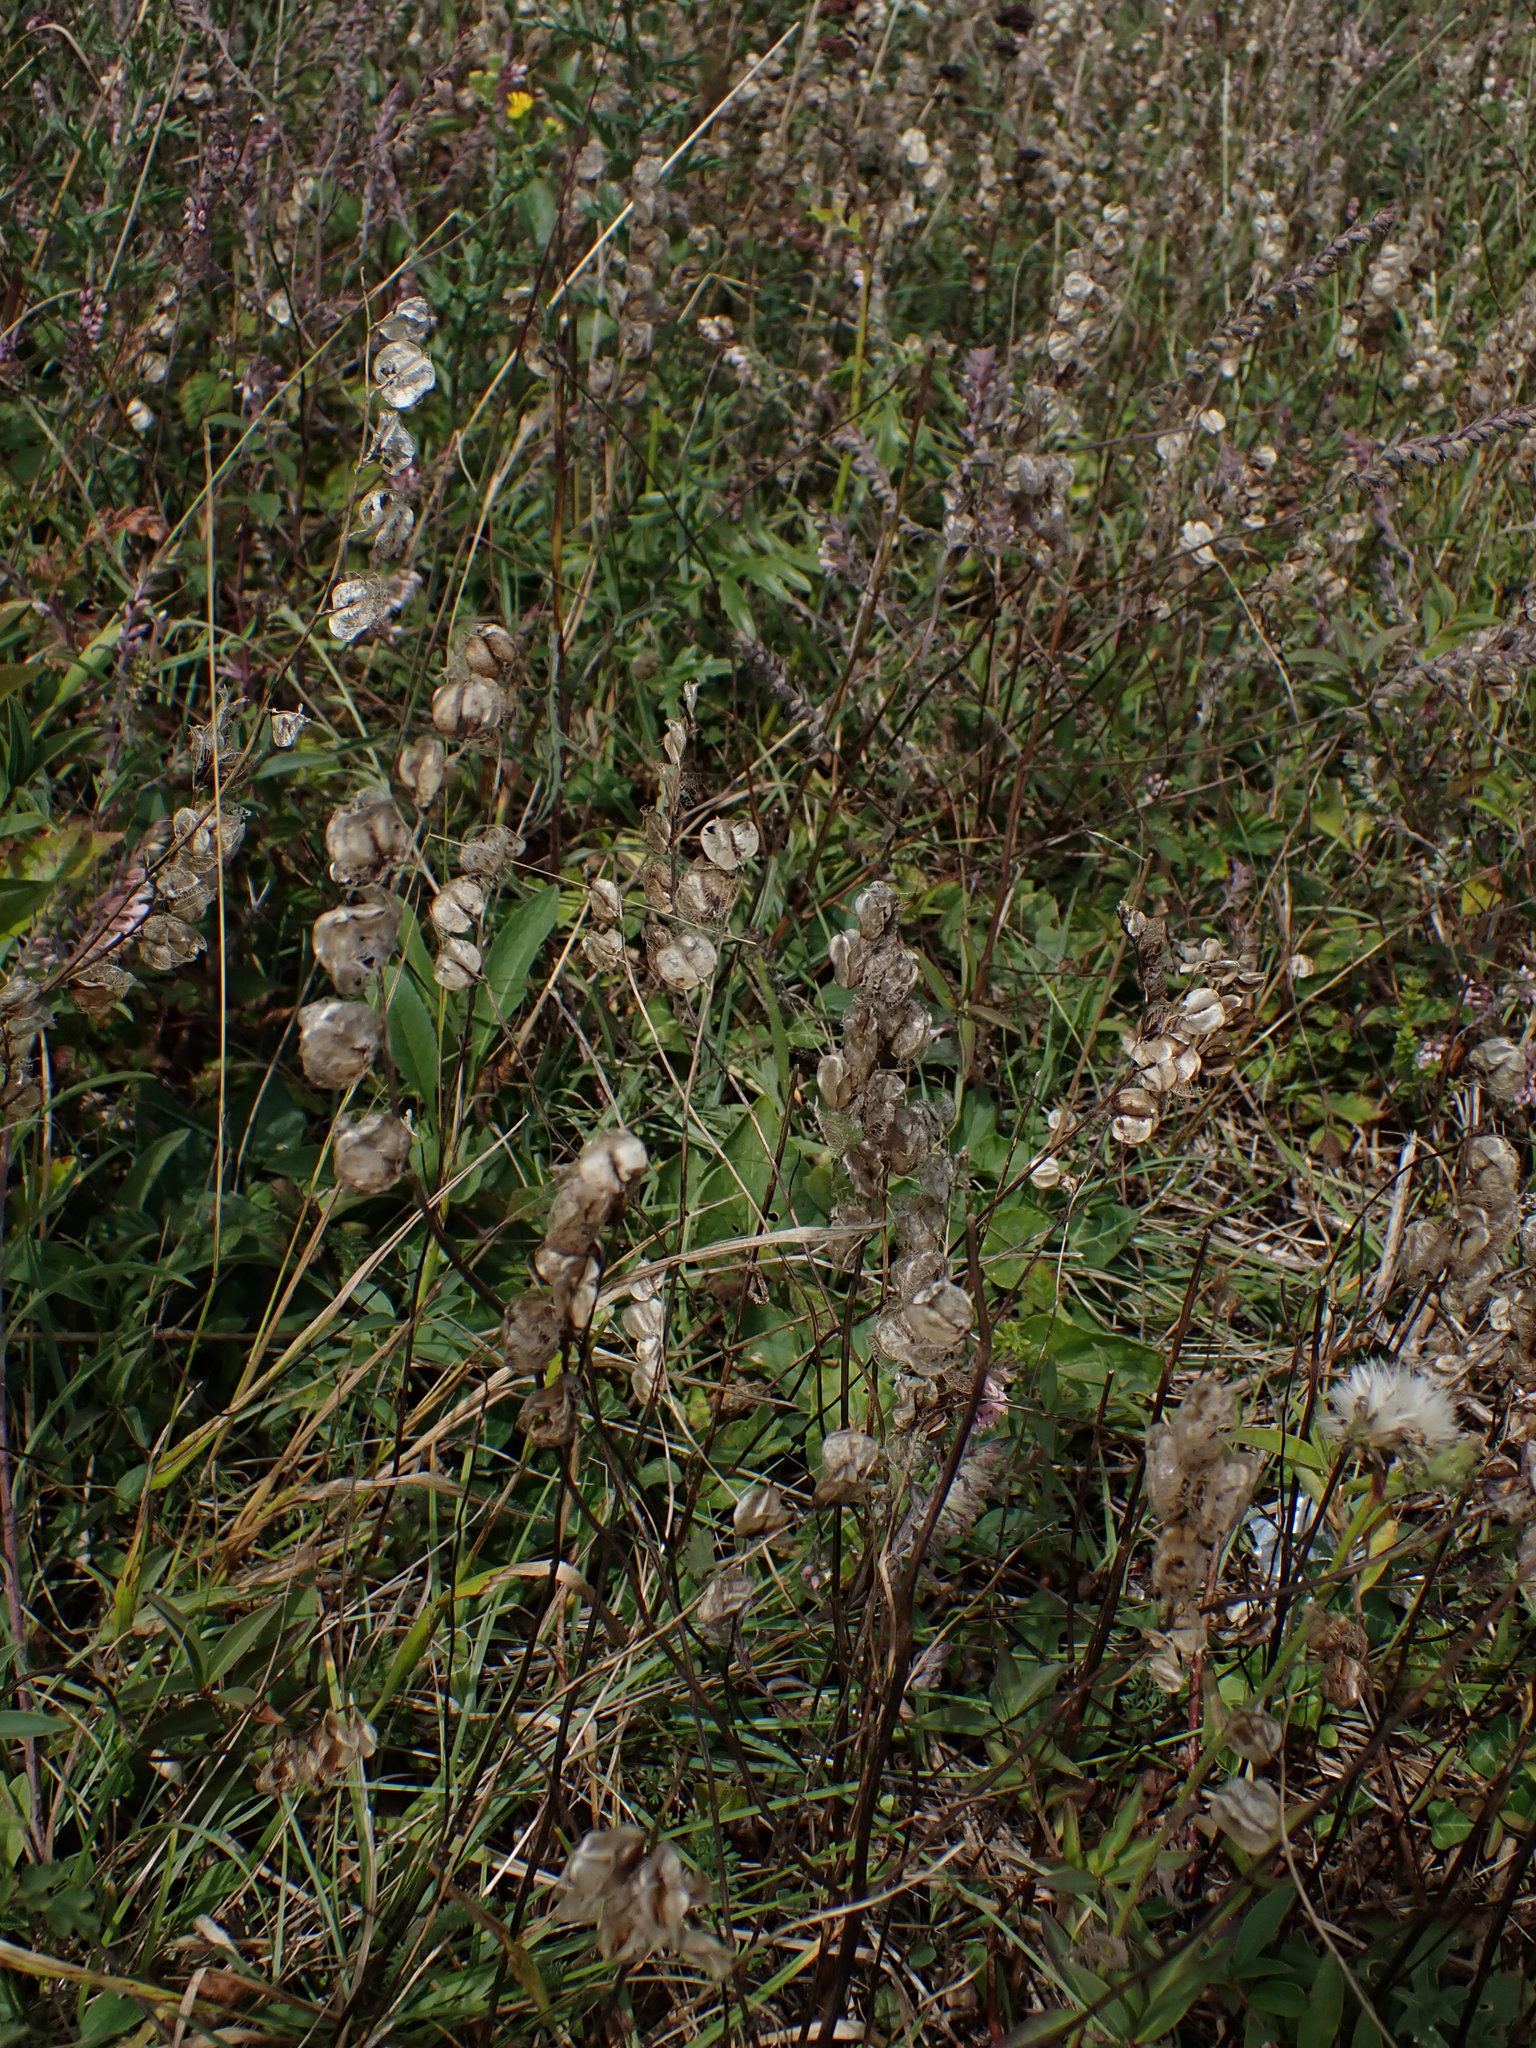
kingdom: Plantae
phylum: Tracheophyta
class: Magnoliopsida
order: Lamiales
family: Orobanchaceae
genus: Rhinanthus
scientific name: Rhinanthus minor
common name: Yellow-rattle
